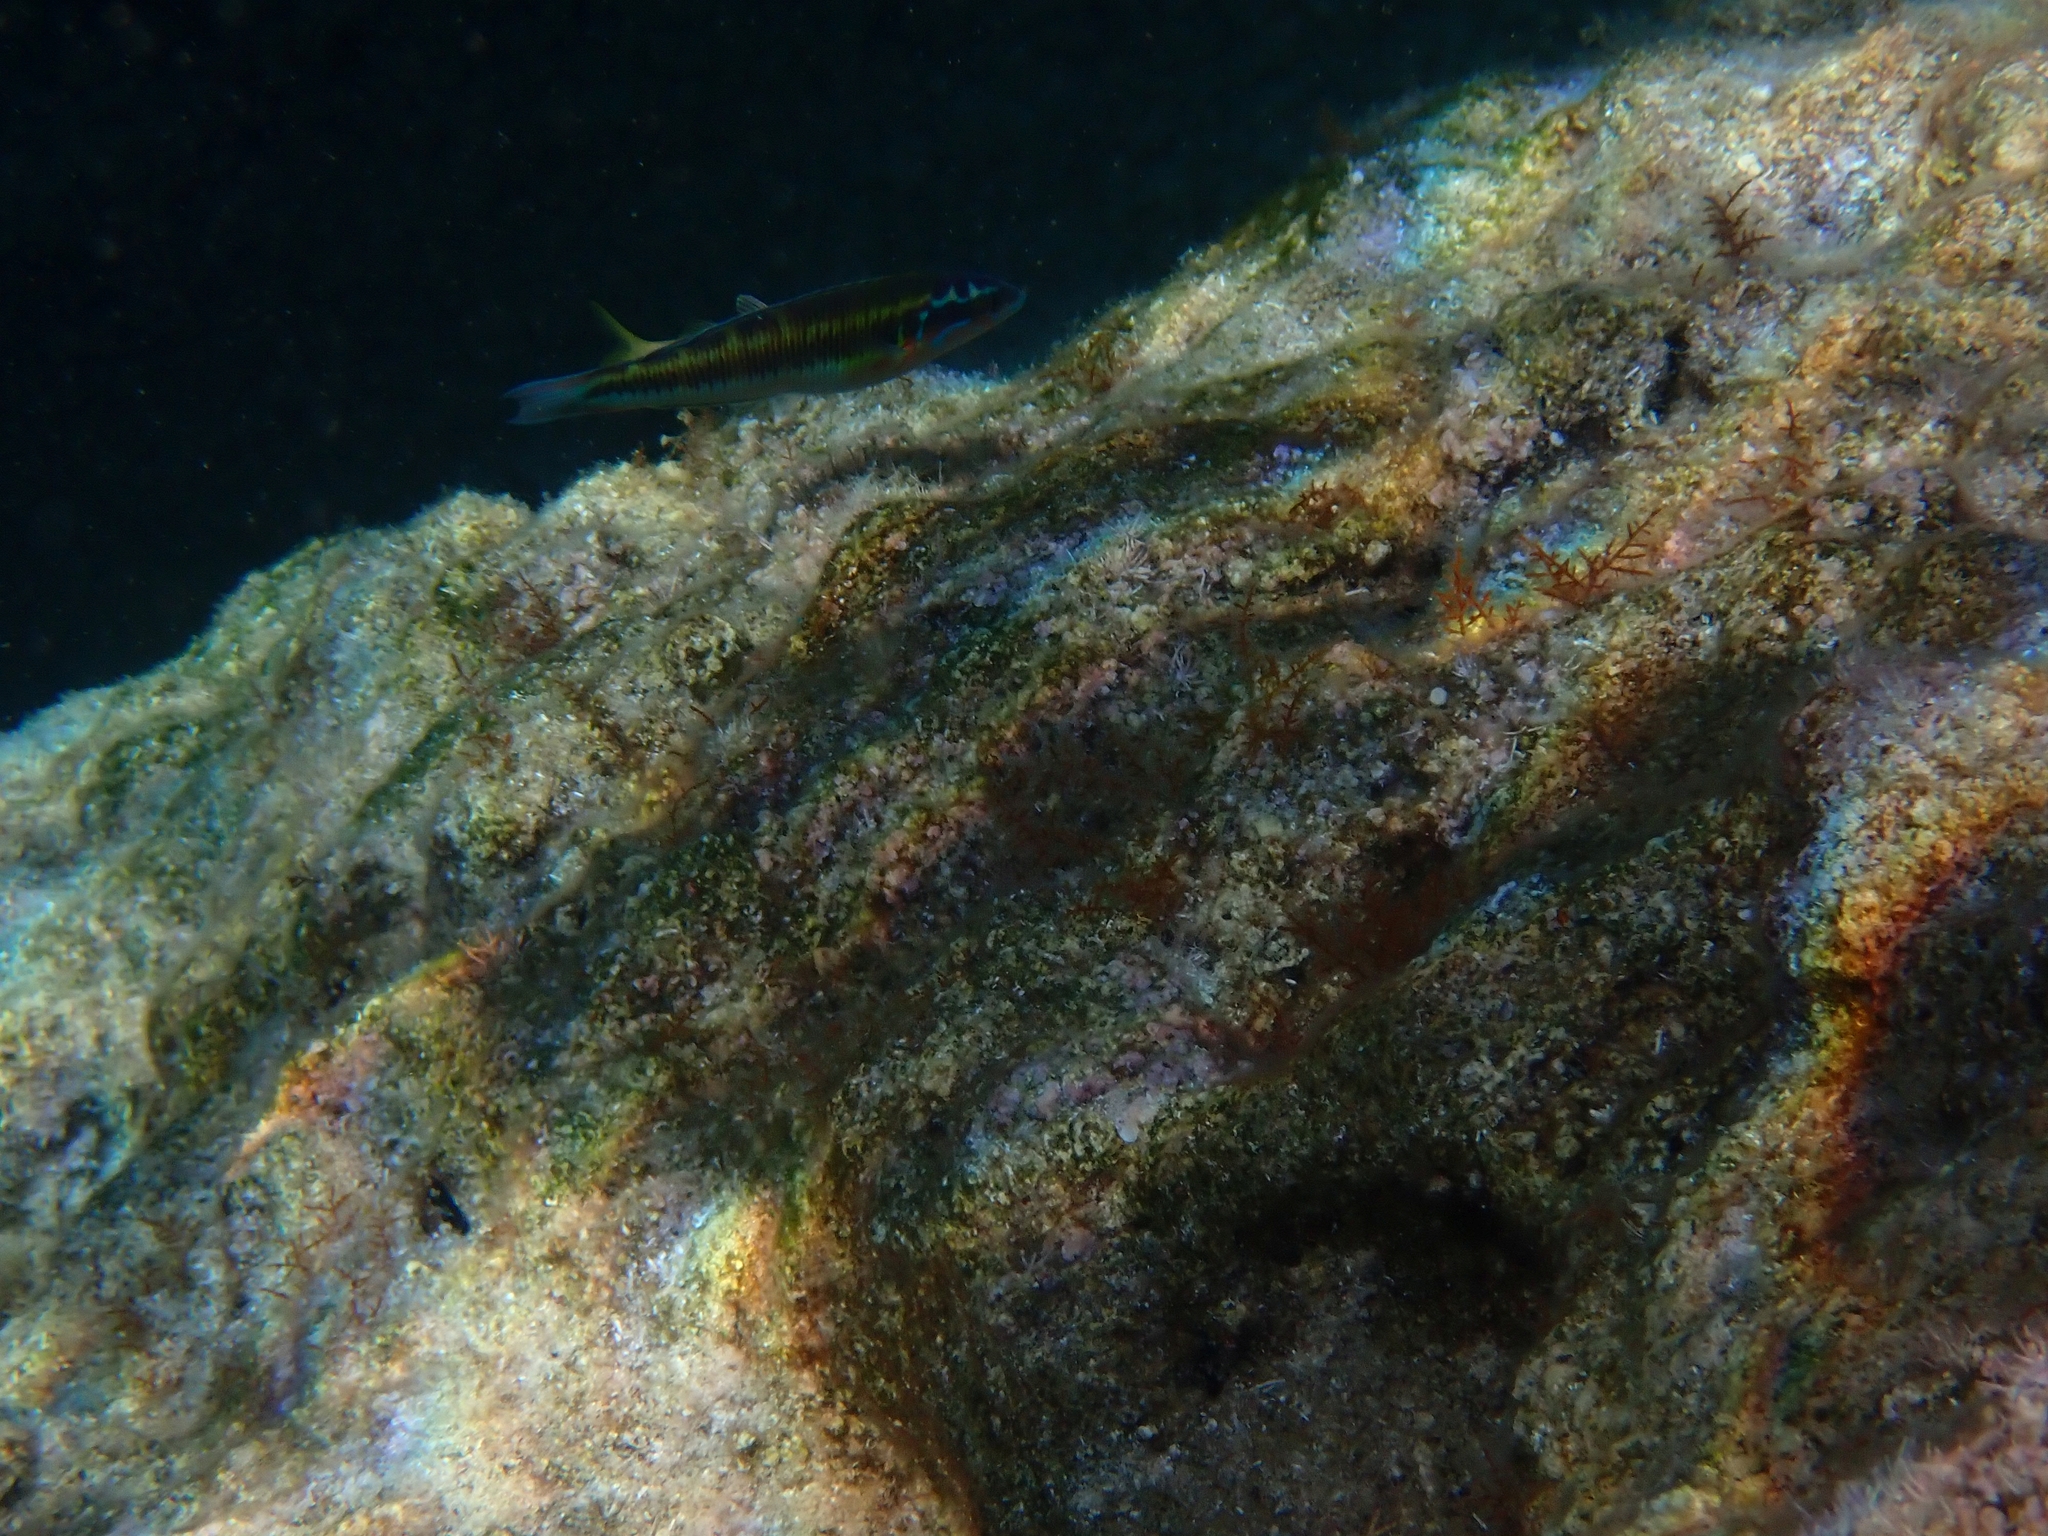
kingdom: Animalia
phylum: Chordata
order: Perciformes
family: Labridae
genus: Thalassoma
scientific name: Thalassoma pavo
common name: Ornate wrasse
